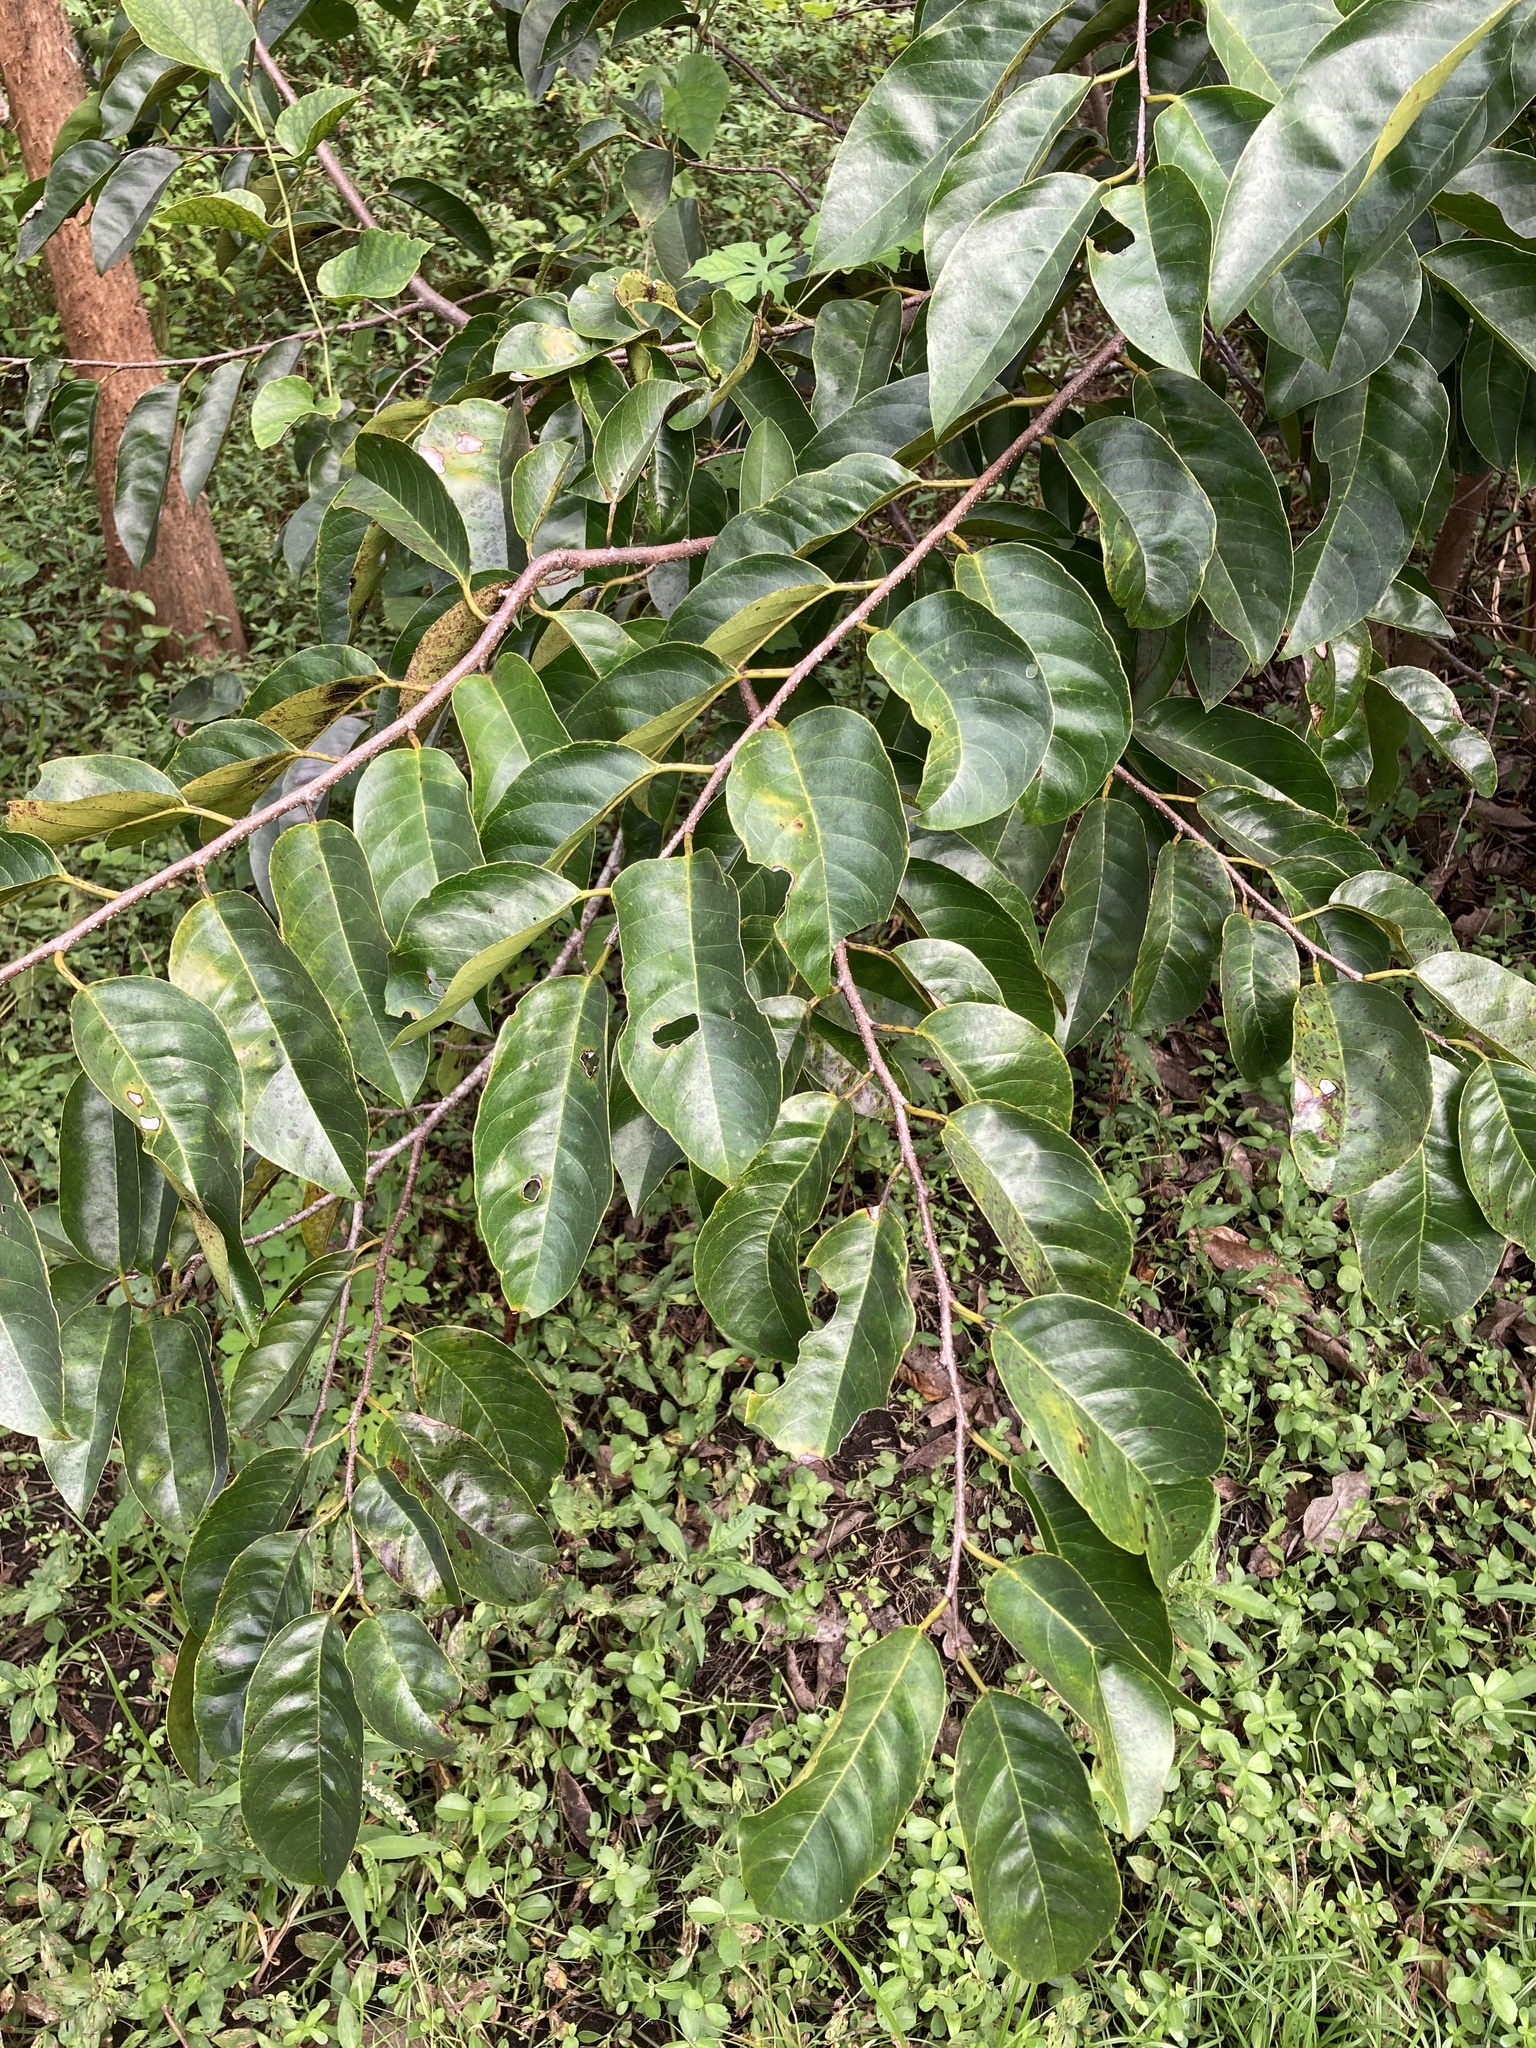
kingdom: Plantae
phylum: Tracheophyta
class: Magnoliopsida
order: Magnoliales
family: Annonaceae
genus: Annona
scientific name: Annona glabra
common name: Monkey apple
